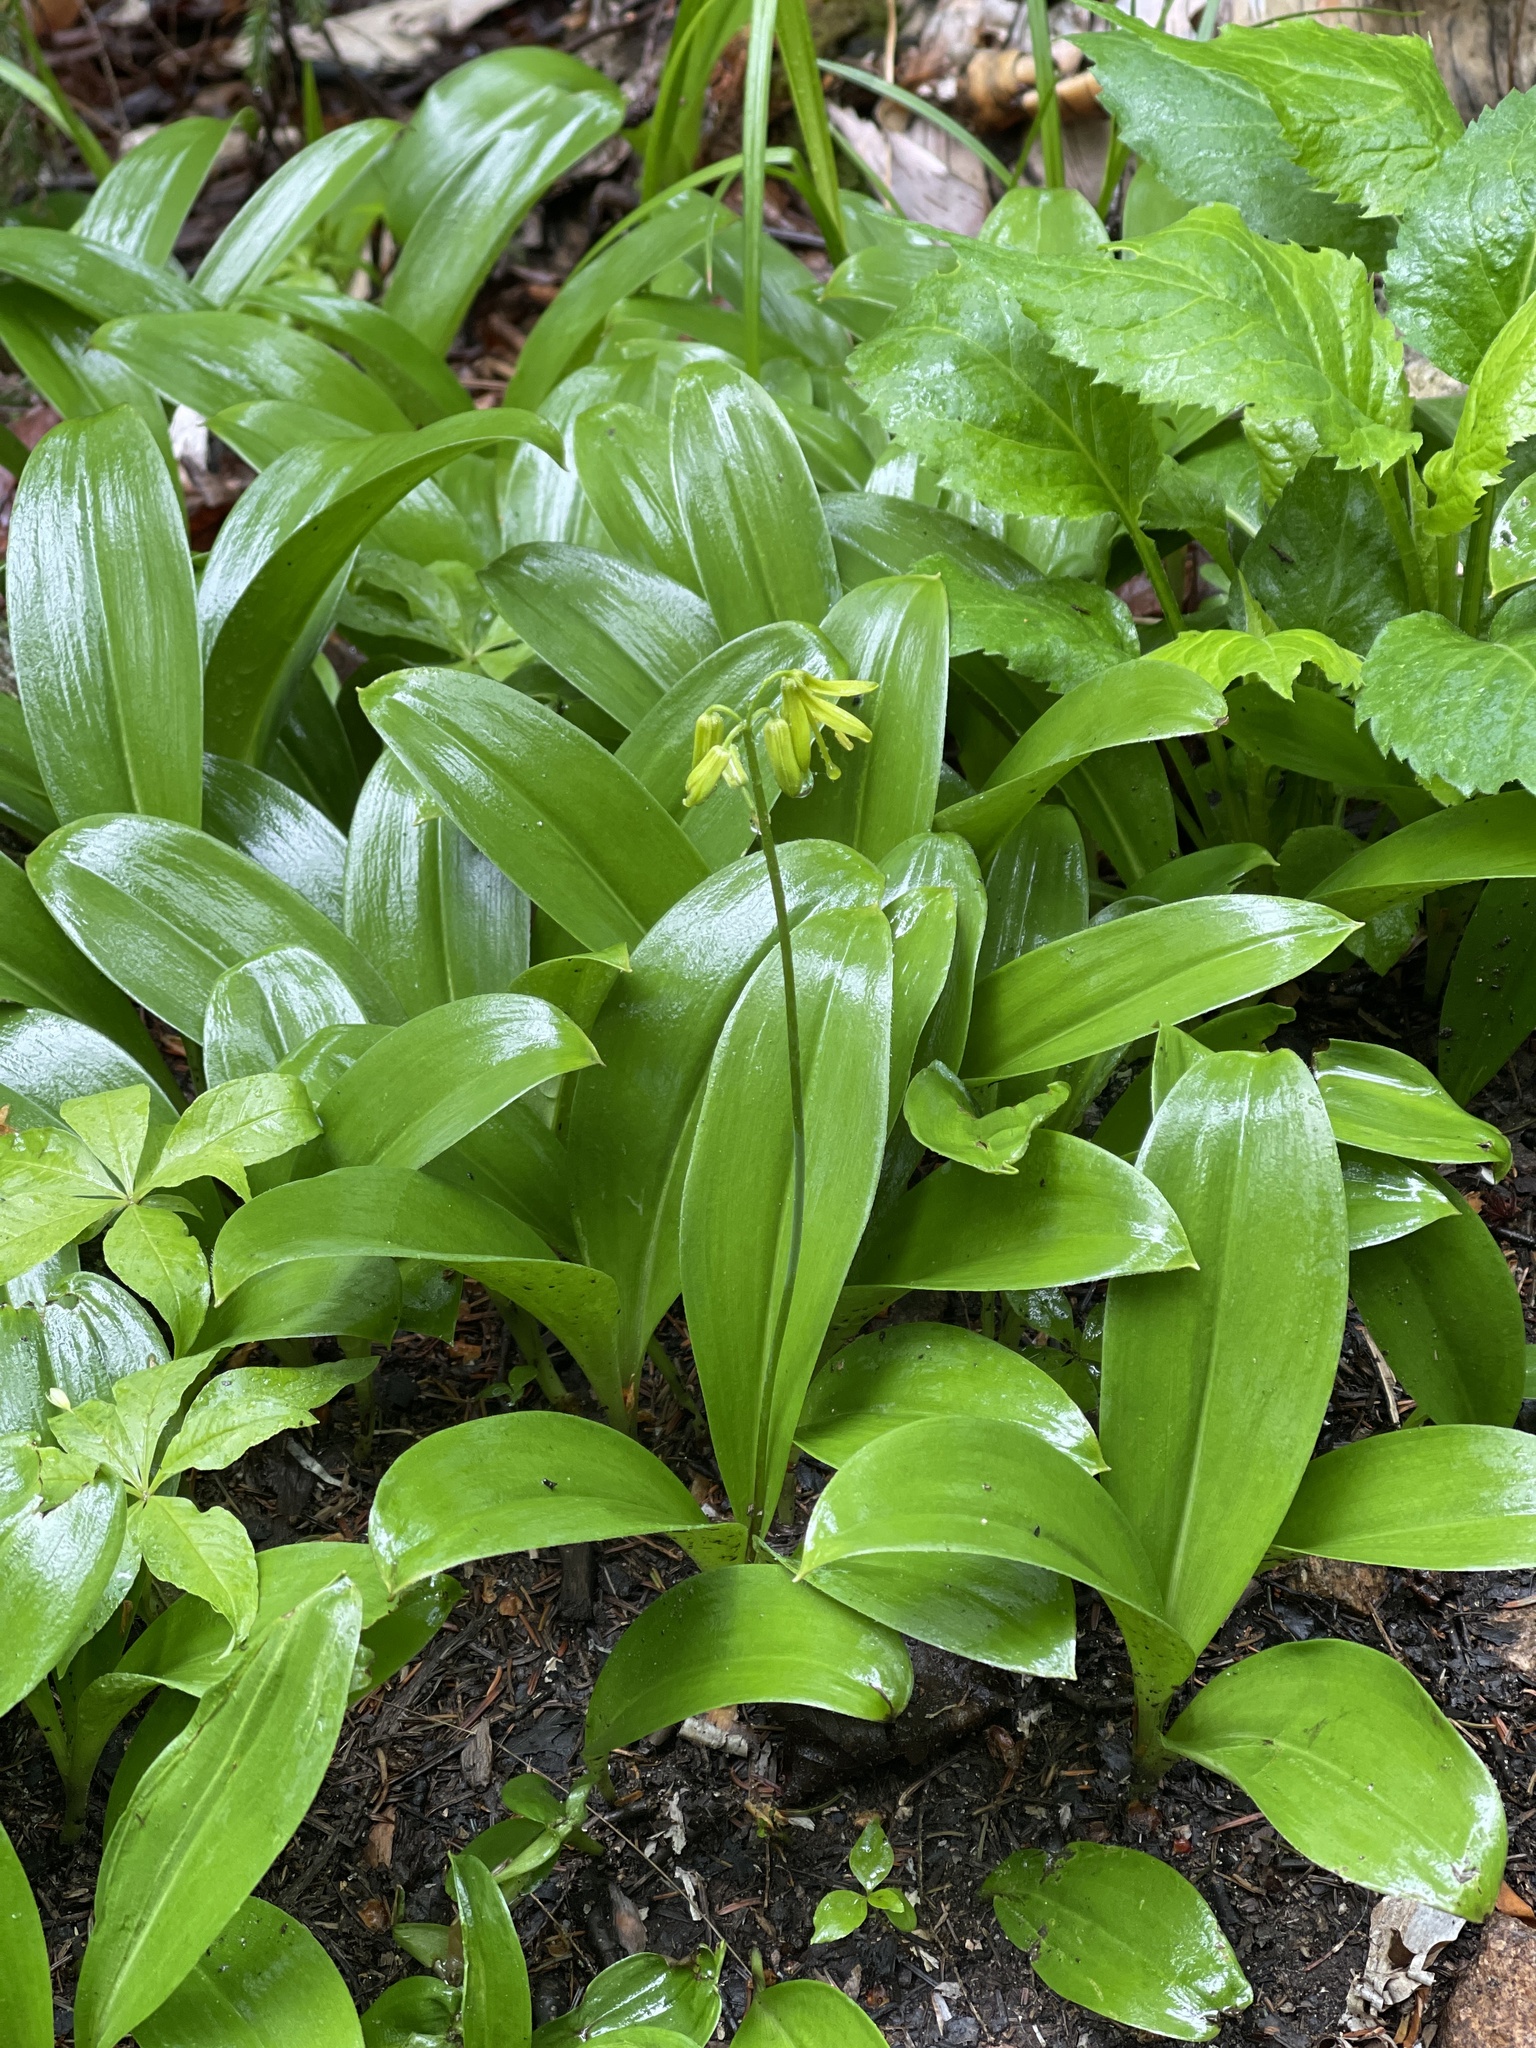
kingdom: Plantae
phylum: Tracheophyta
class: Liliopsida
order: Liliales
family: Liliaceae
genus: Clintonia
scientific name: Clintonia borealis
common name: Yellow clintonia
